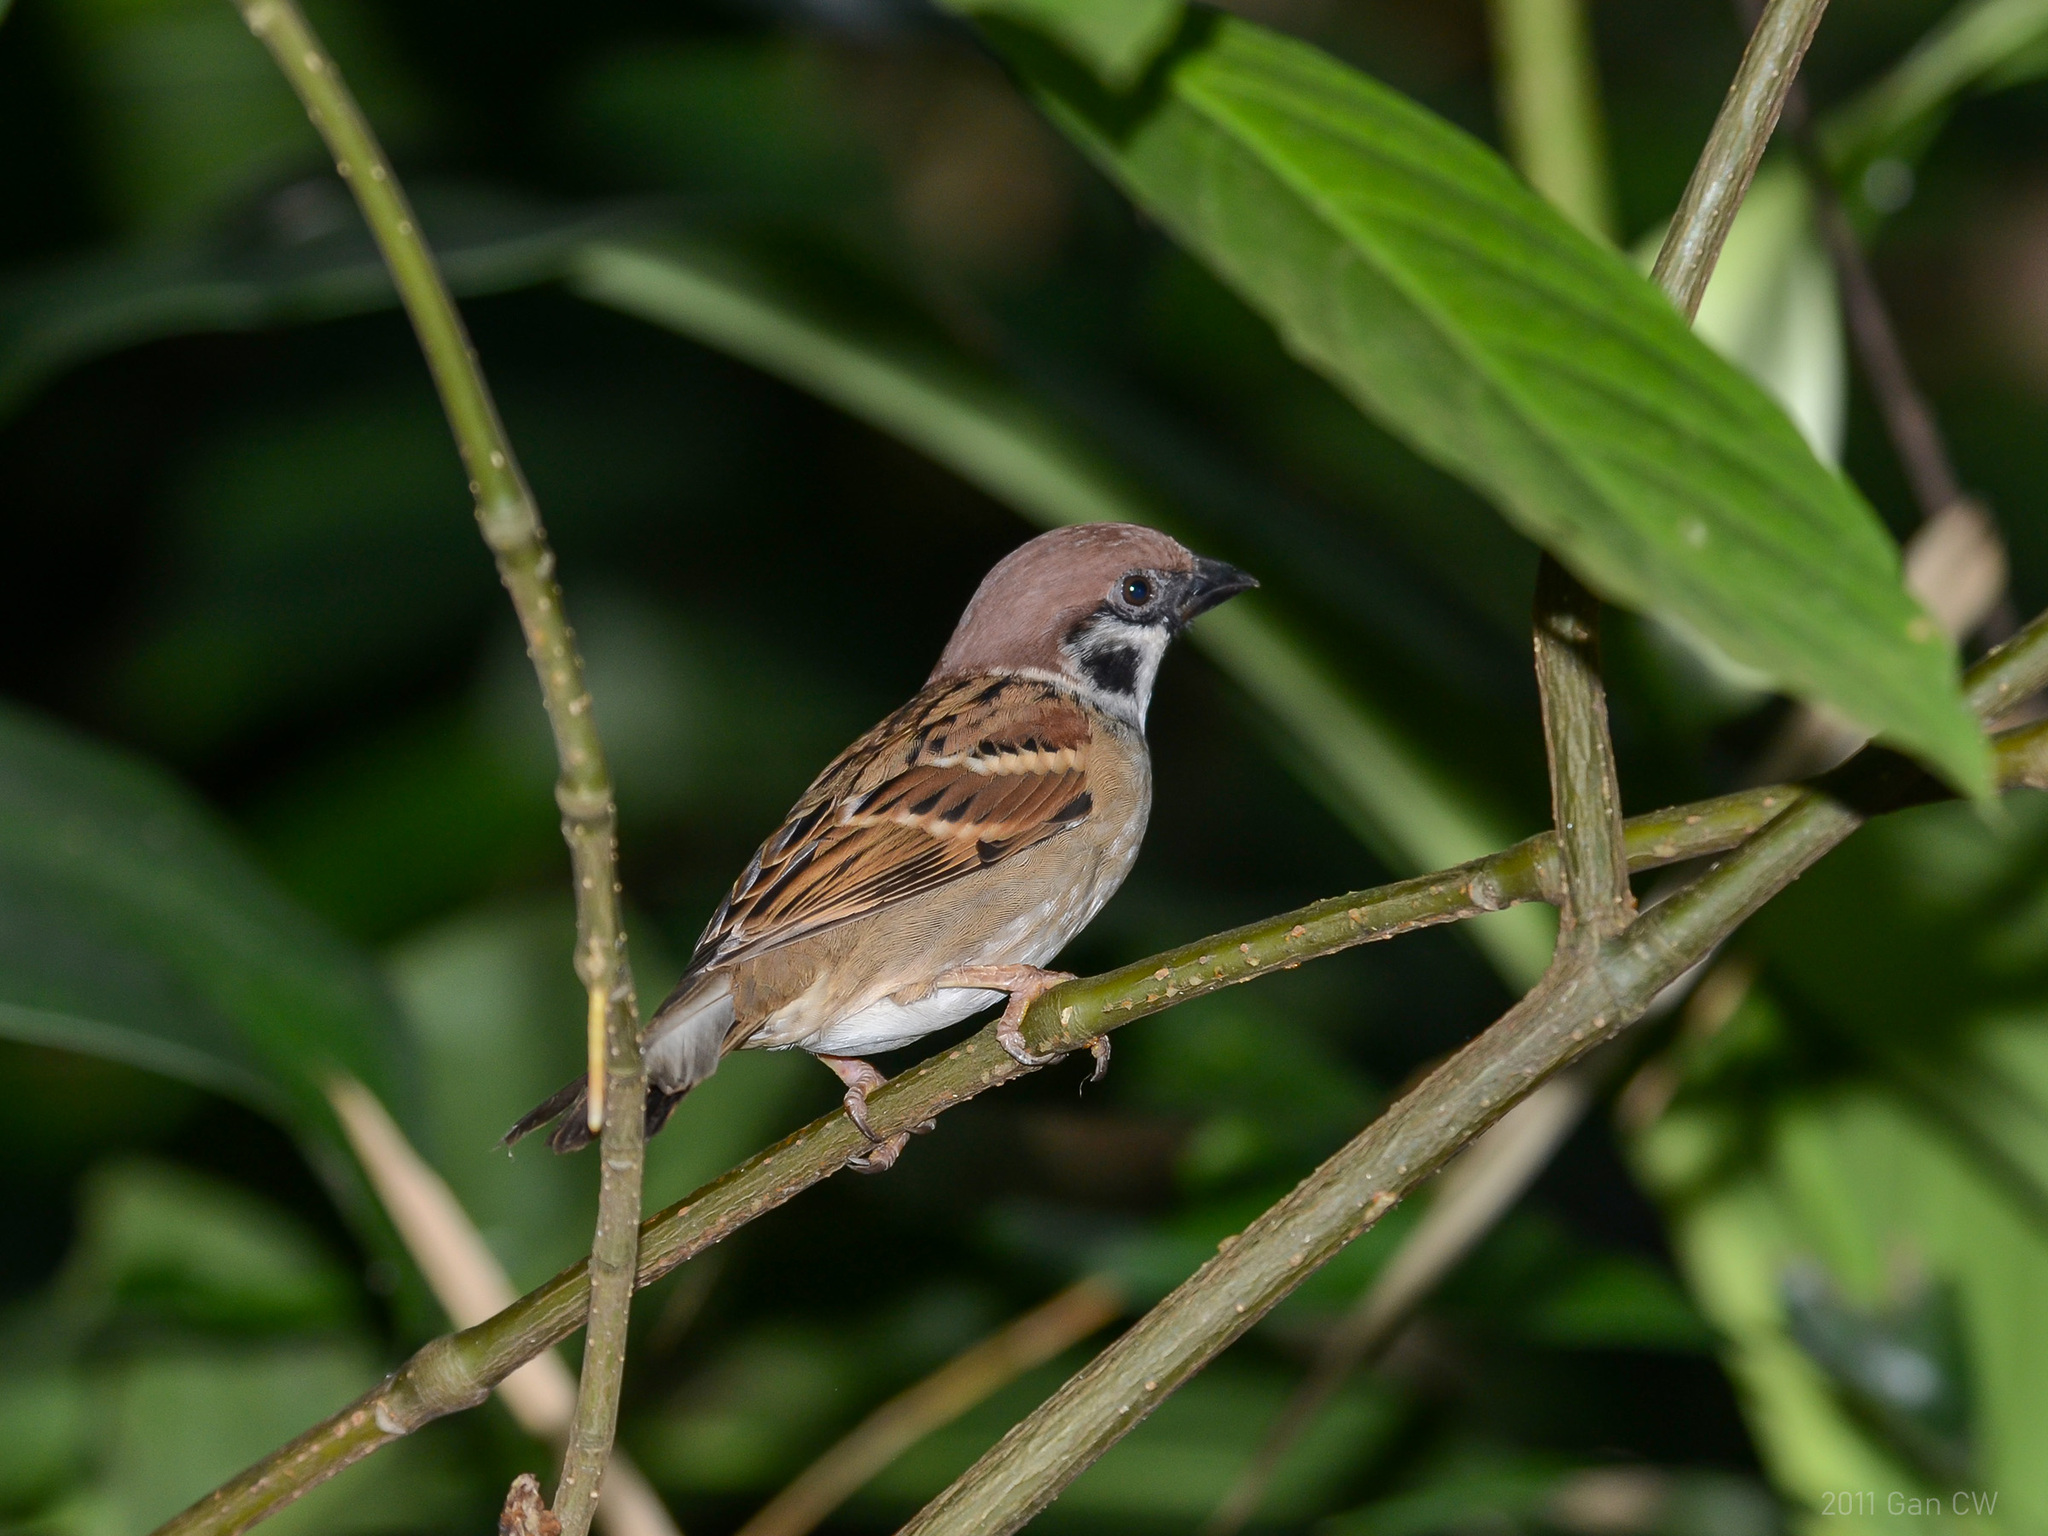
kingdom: Animalia
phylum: Chordata
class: Aves
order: Passeriformes
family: Passeridae
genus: Passer
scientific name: Passer montanus
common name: Eurasian tree sparrow
